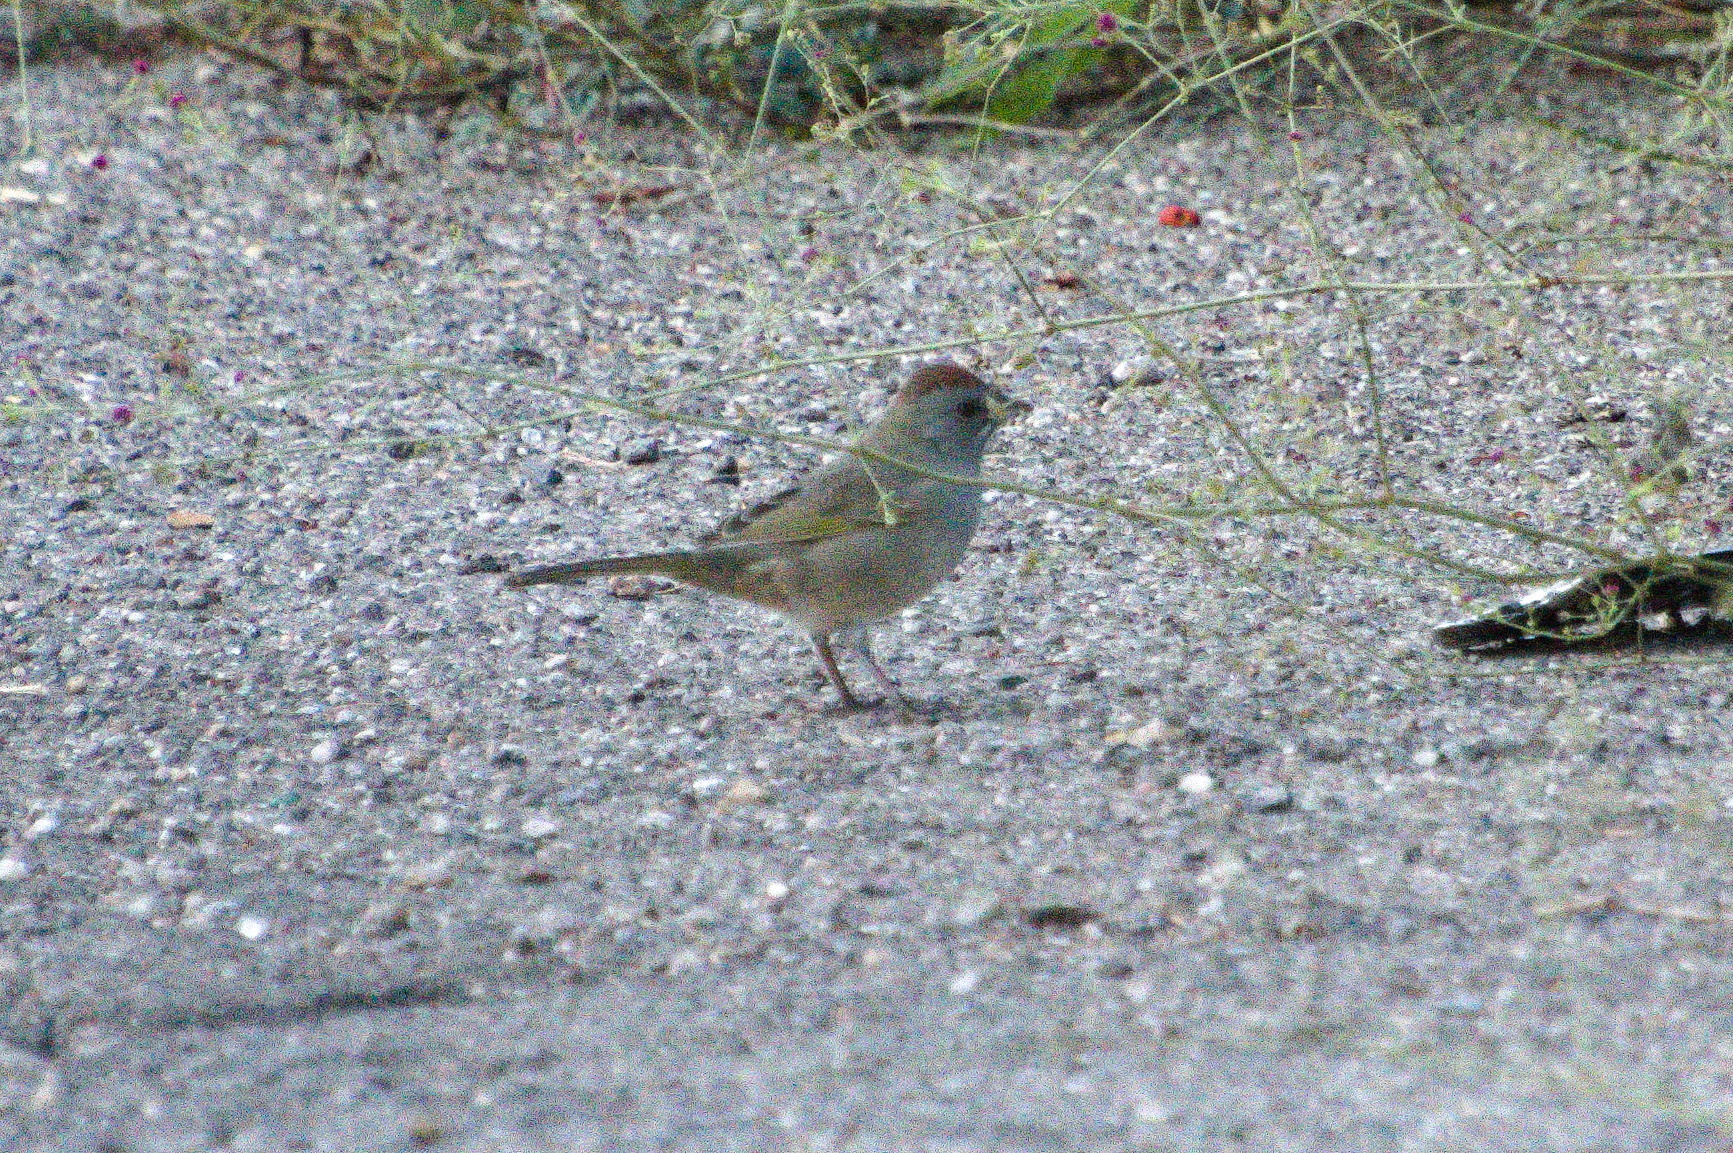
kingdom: Animalia
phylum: Chordata
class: Aves
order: Passeriformes
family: Passerellidae
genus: Pipilo
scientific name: Pipilo chlorurus
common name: Green-tailed towhee
